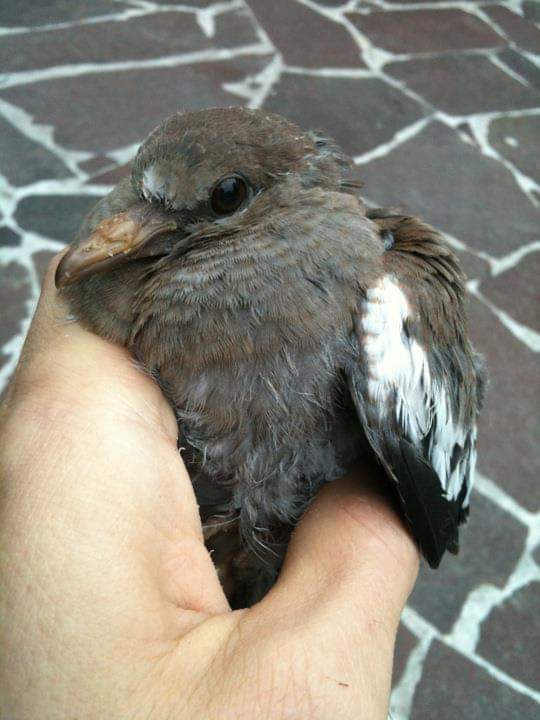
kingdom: Animalia
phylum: Chordata
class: Aves
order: Columbiformes
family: Columbidae
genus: Zenaida
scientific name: Zenaida asiatica
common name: White-winged dove
